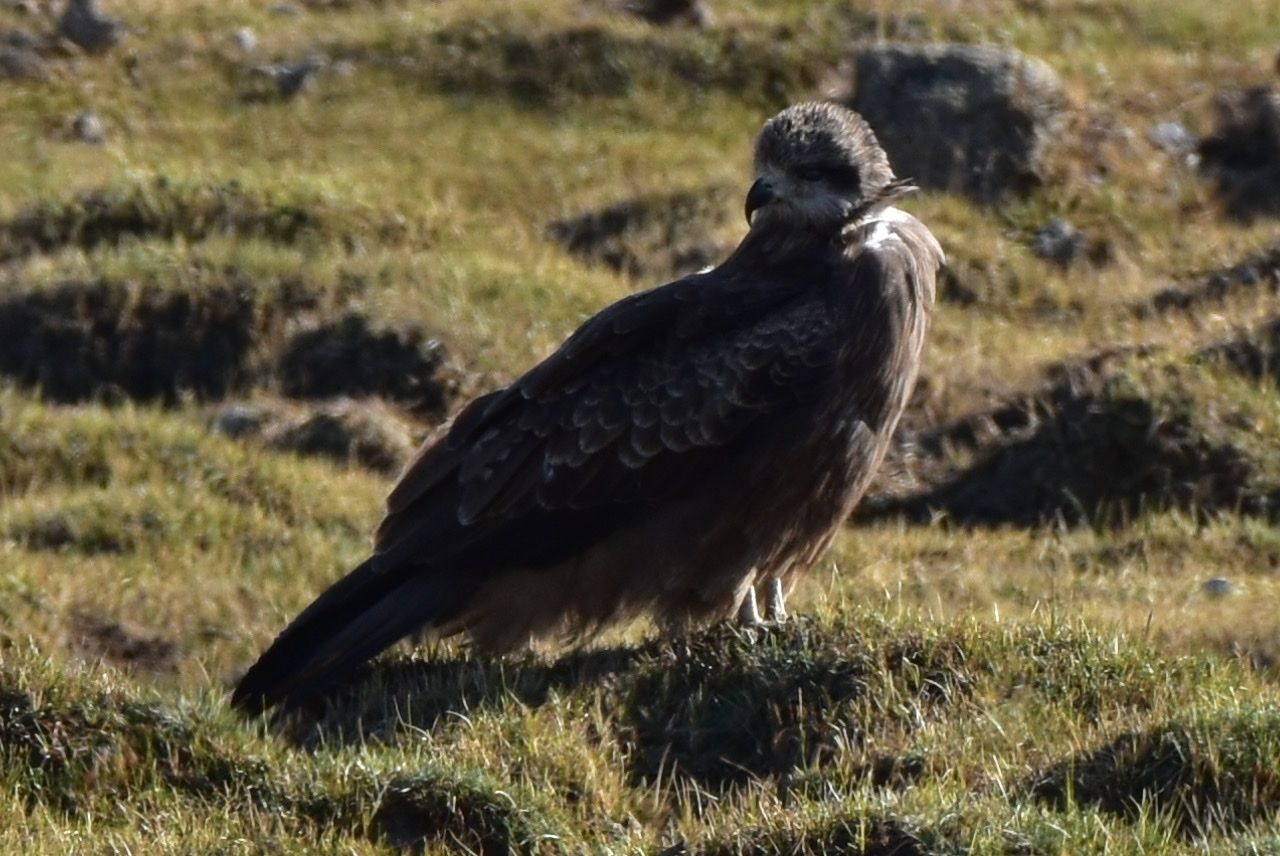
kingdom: Animalia
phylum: Chordata
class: Aves
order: Accipitriformes
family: Accipitridae
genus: Milvus
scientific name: Milvus migrans
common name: Black kite
